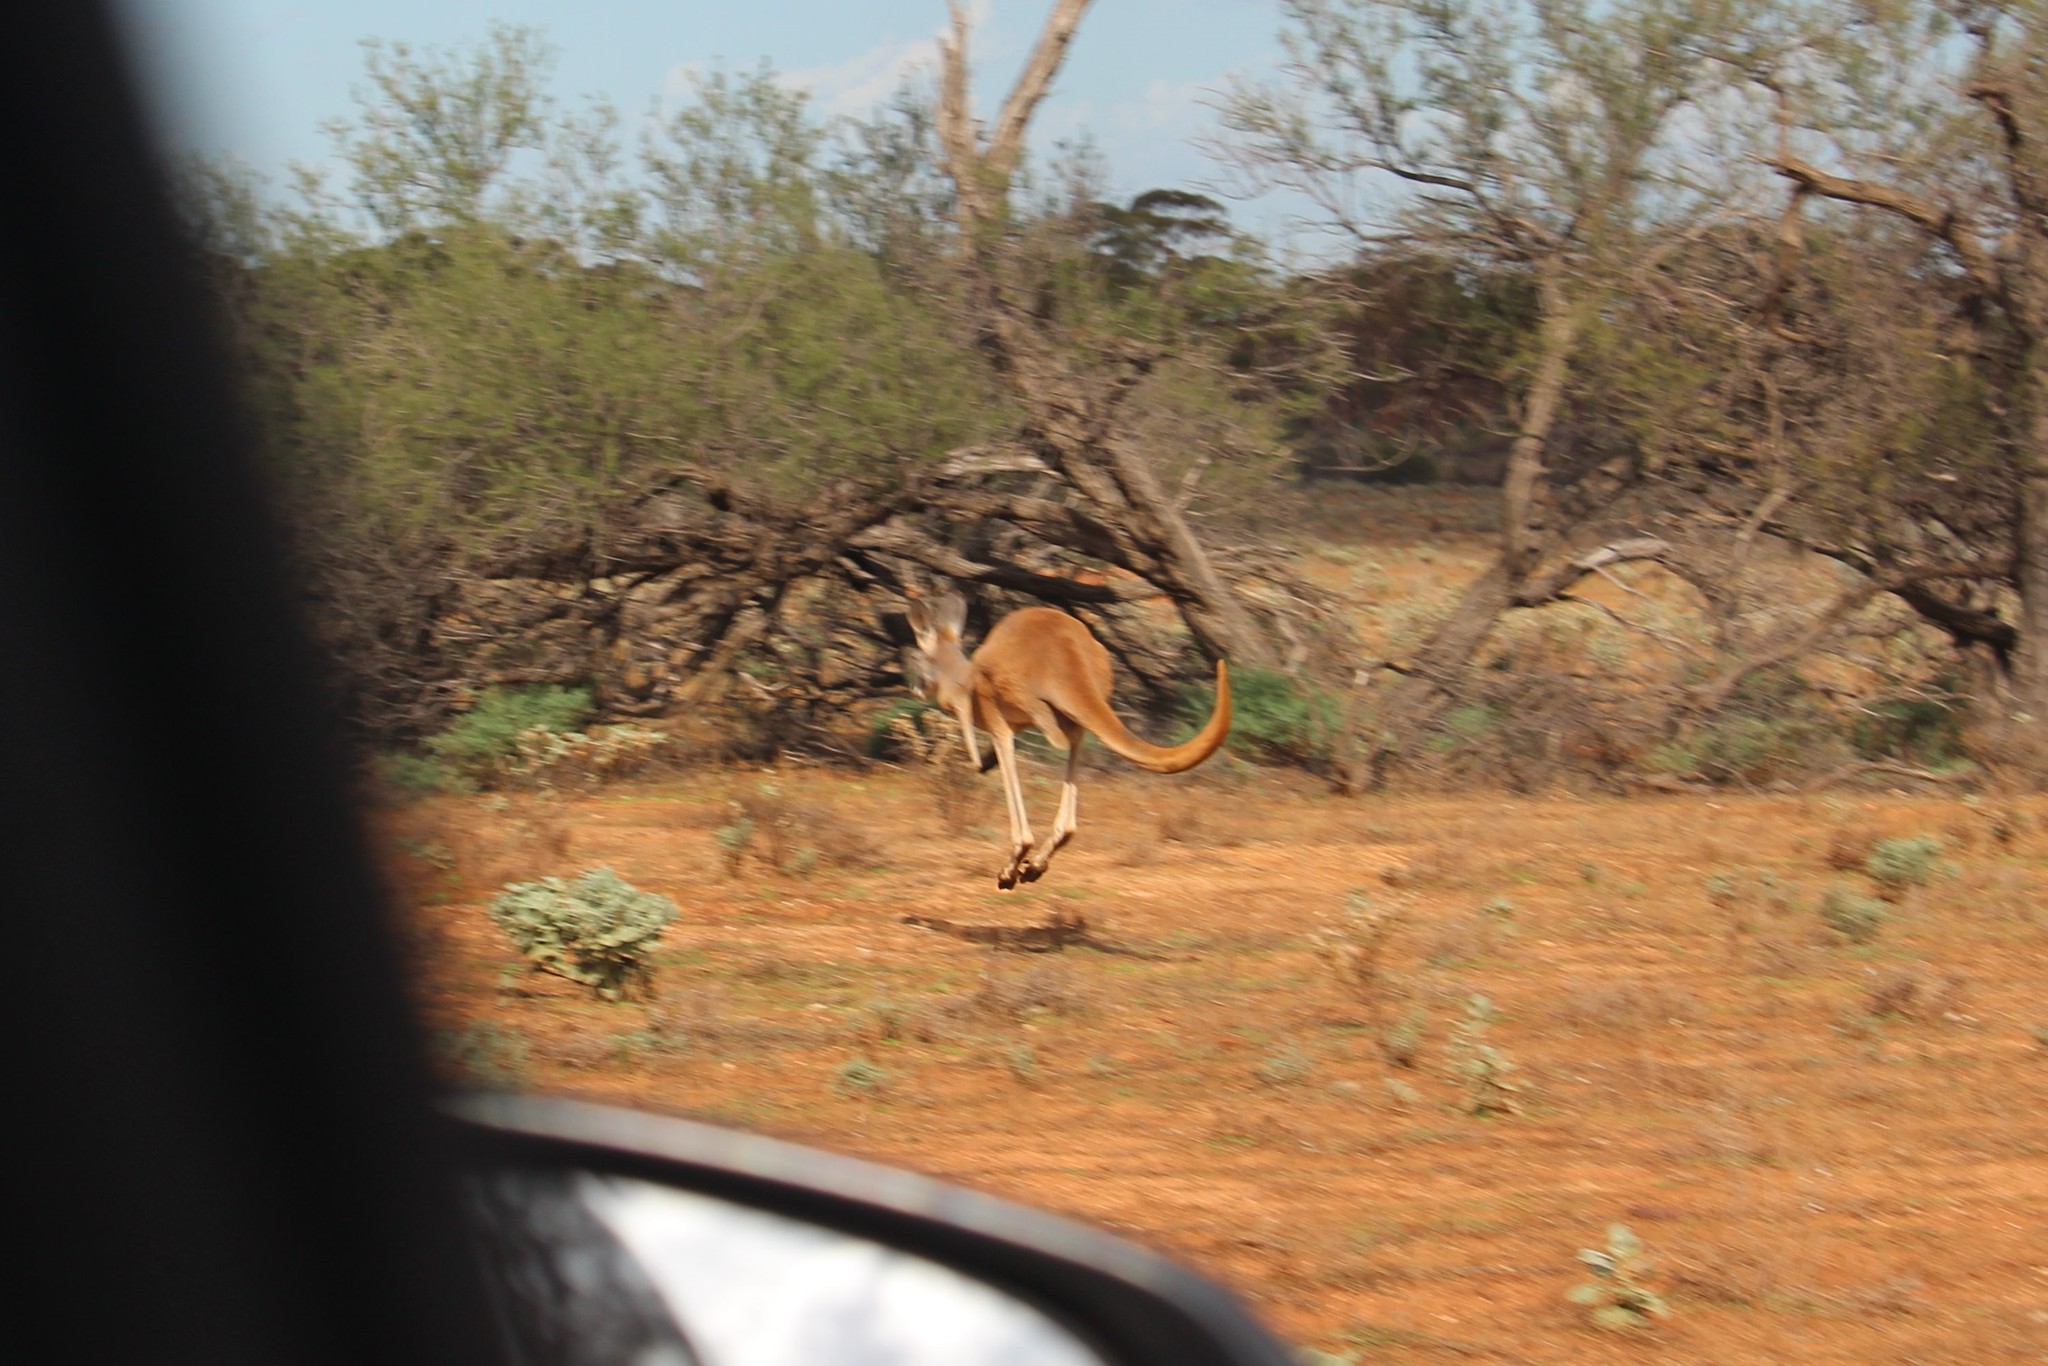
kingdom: Animalia
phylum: Chordata
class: Mammalia
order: Diprotodontia
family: Macropodidae
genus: Macropus
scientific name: Macropus rufus
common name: Red kangaroo
